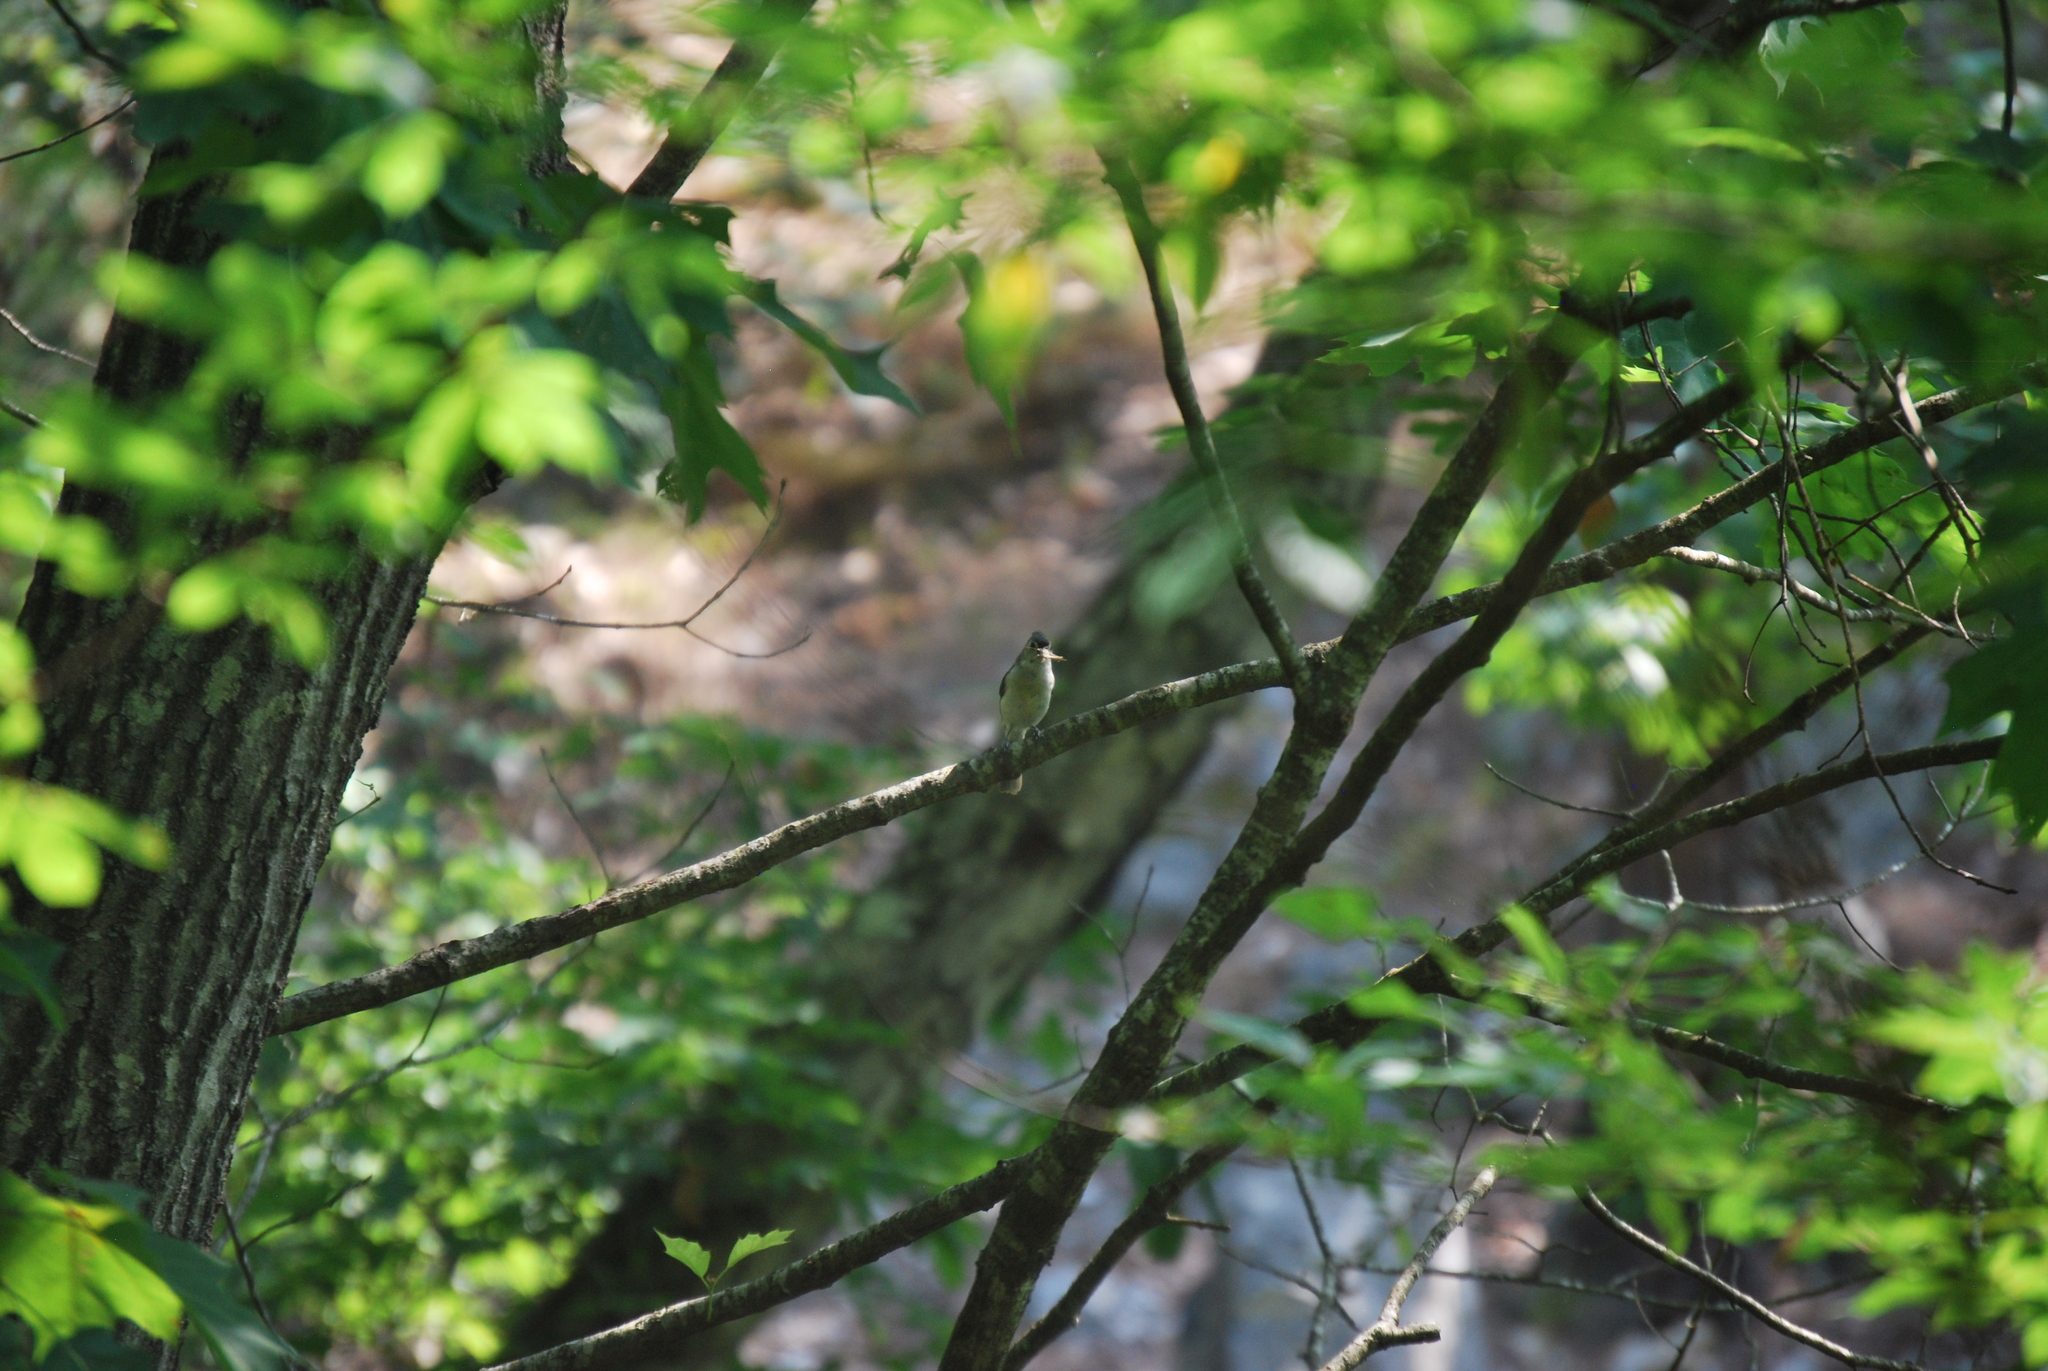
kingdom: Animalia
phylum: Chordata
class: Aves
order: Passeriformes
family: Paridae
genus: Baeolophus
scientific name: Baeolophus bicolor
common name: Tufted titmouse
